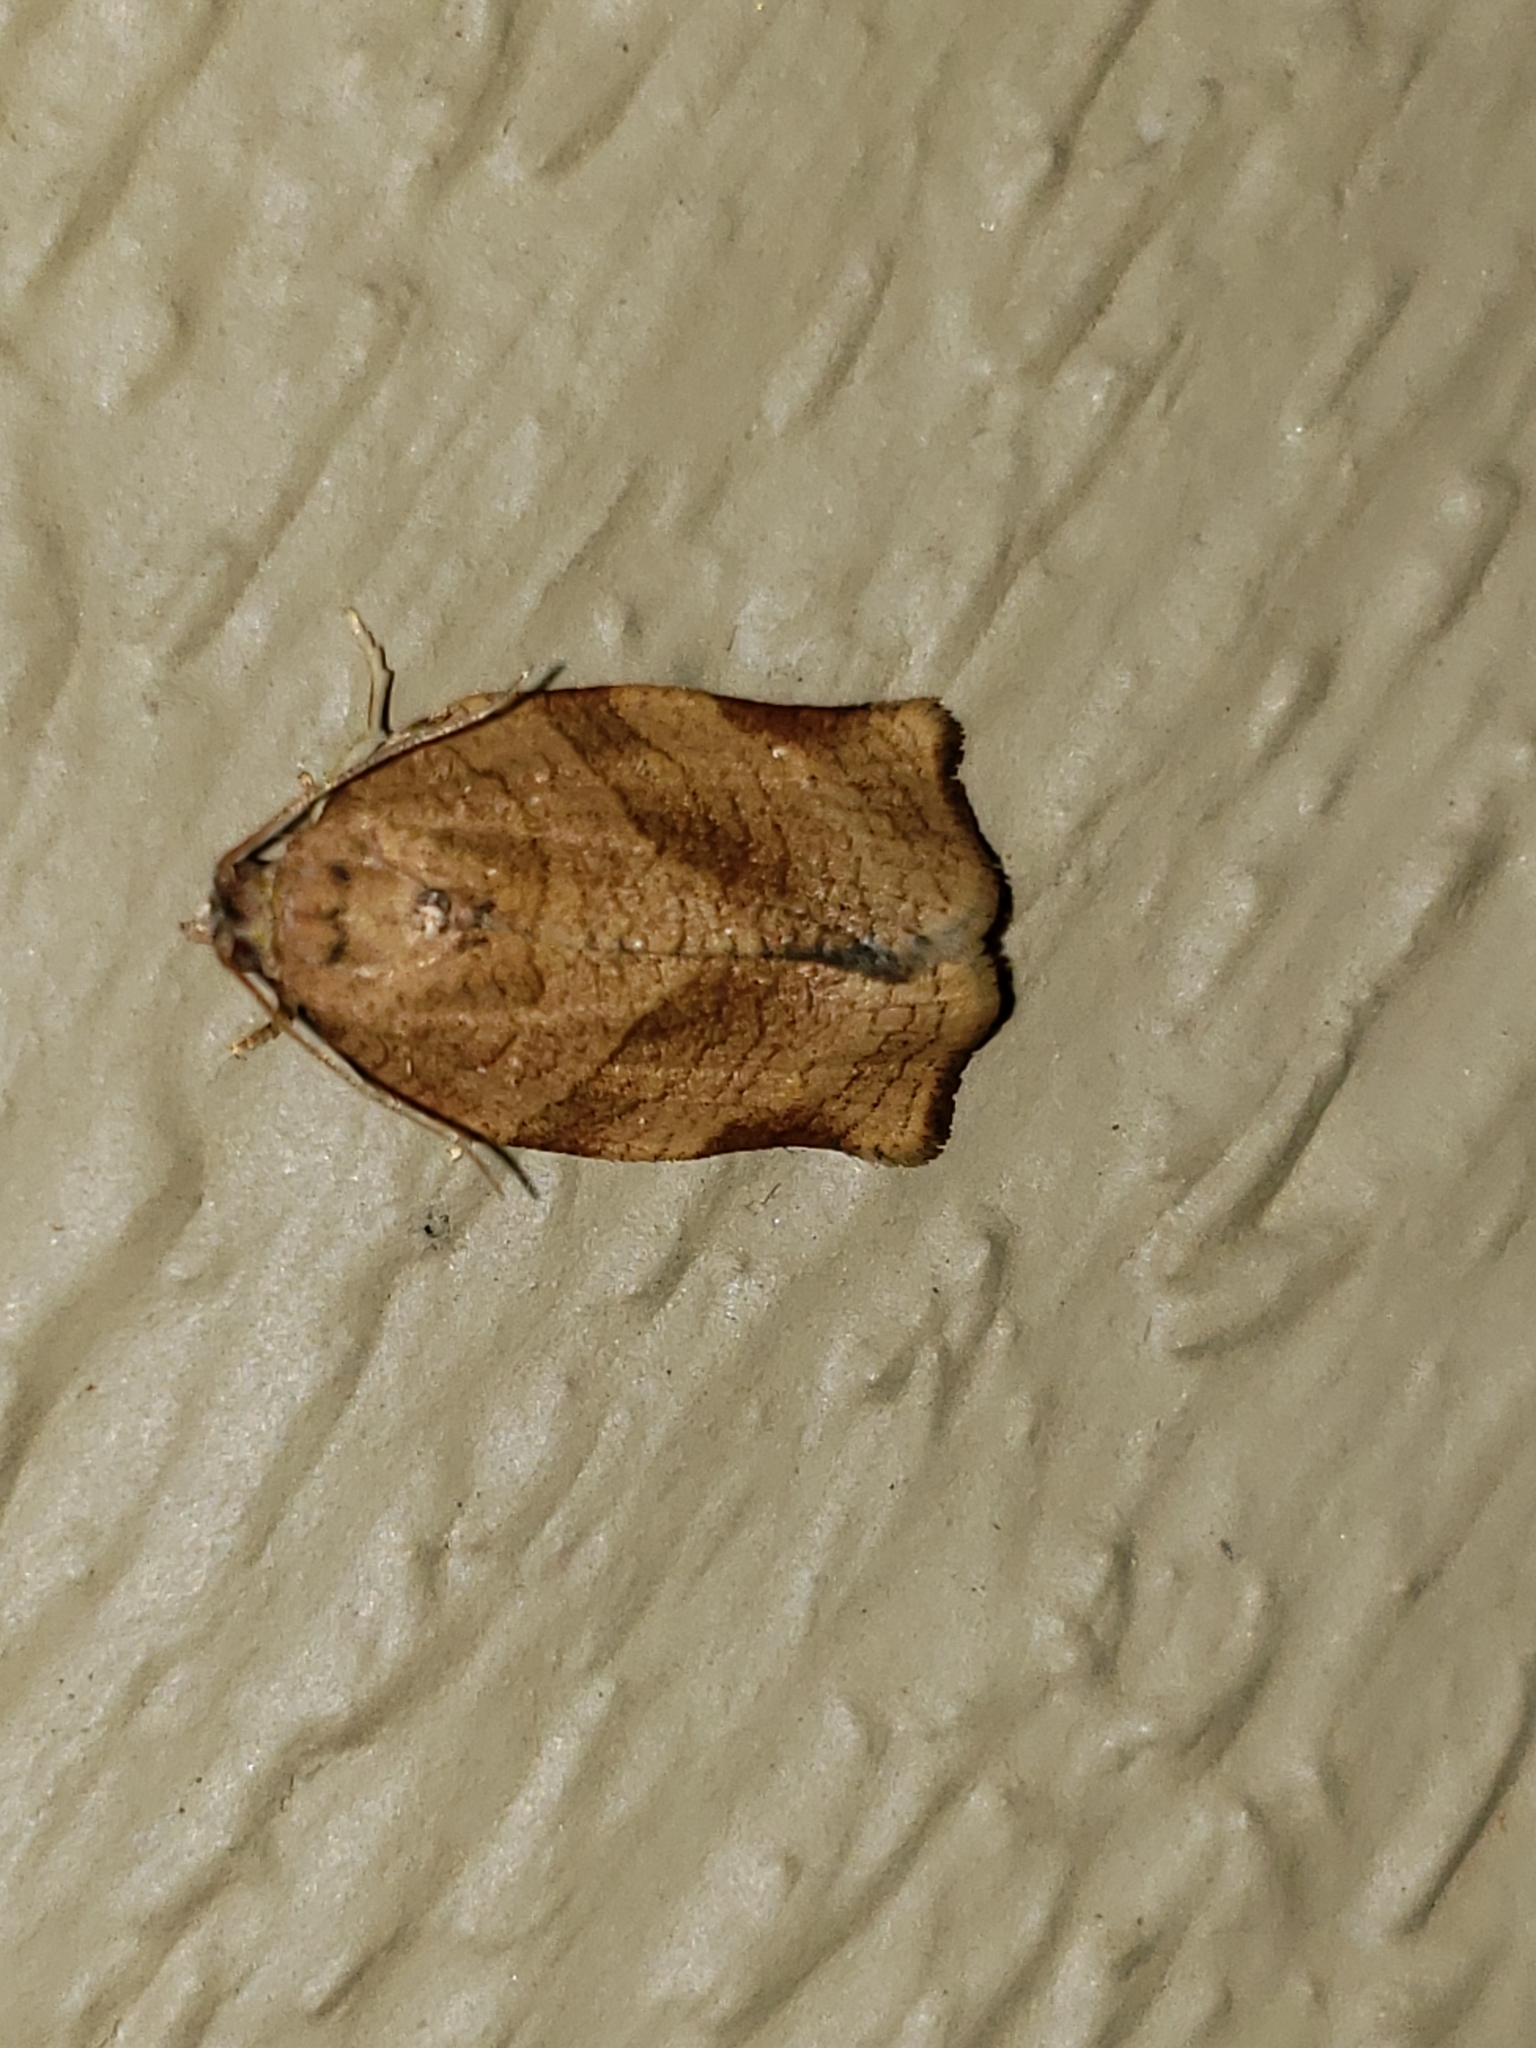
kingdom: Animalia
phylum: Arthropoda
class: Insecta
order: Lepidoptera
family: Tortricidae
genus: Choristoneura
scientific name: Choristoneura rosaceana
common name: Oblique-banded leafroller moth
